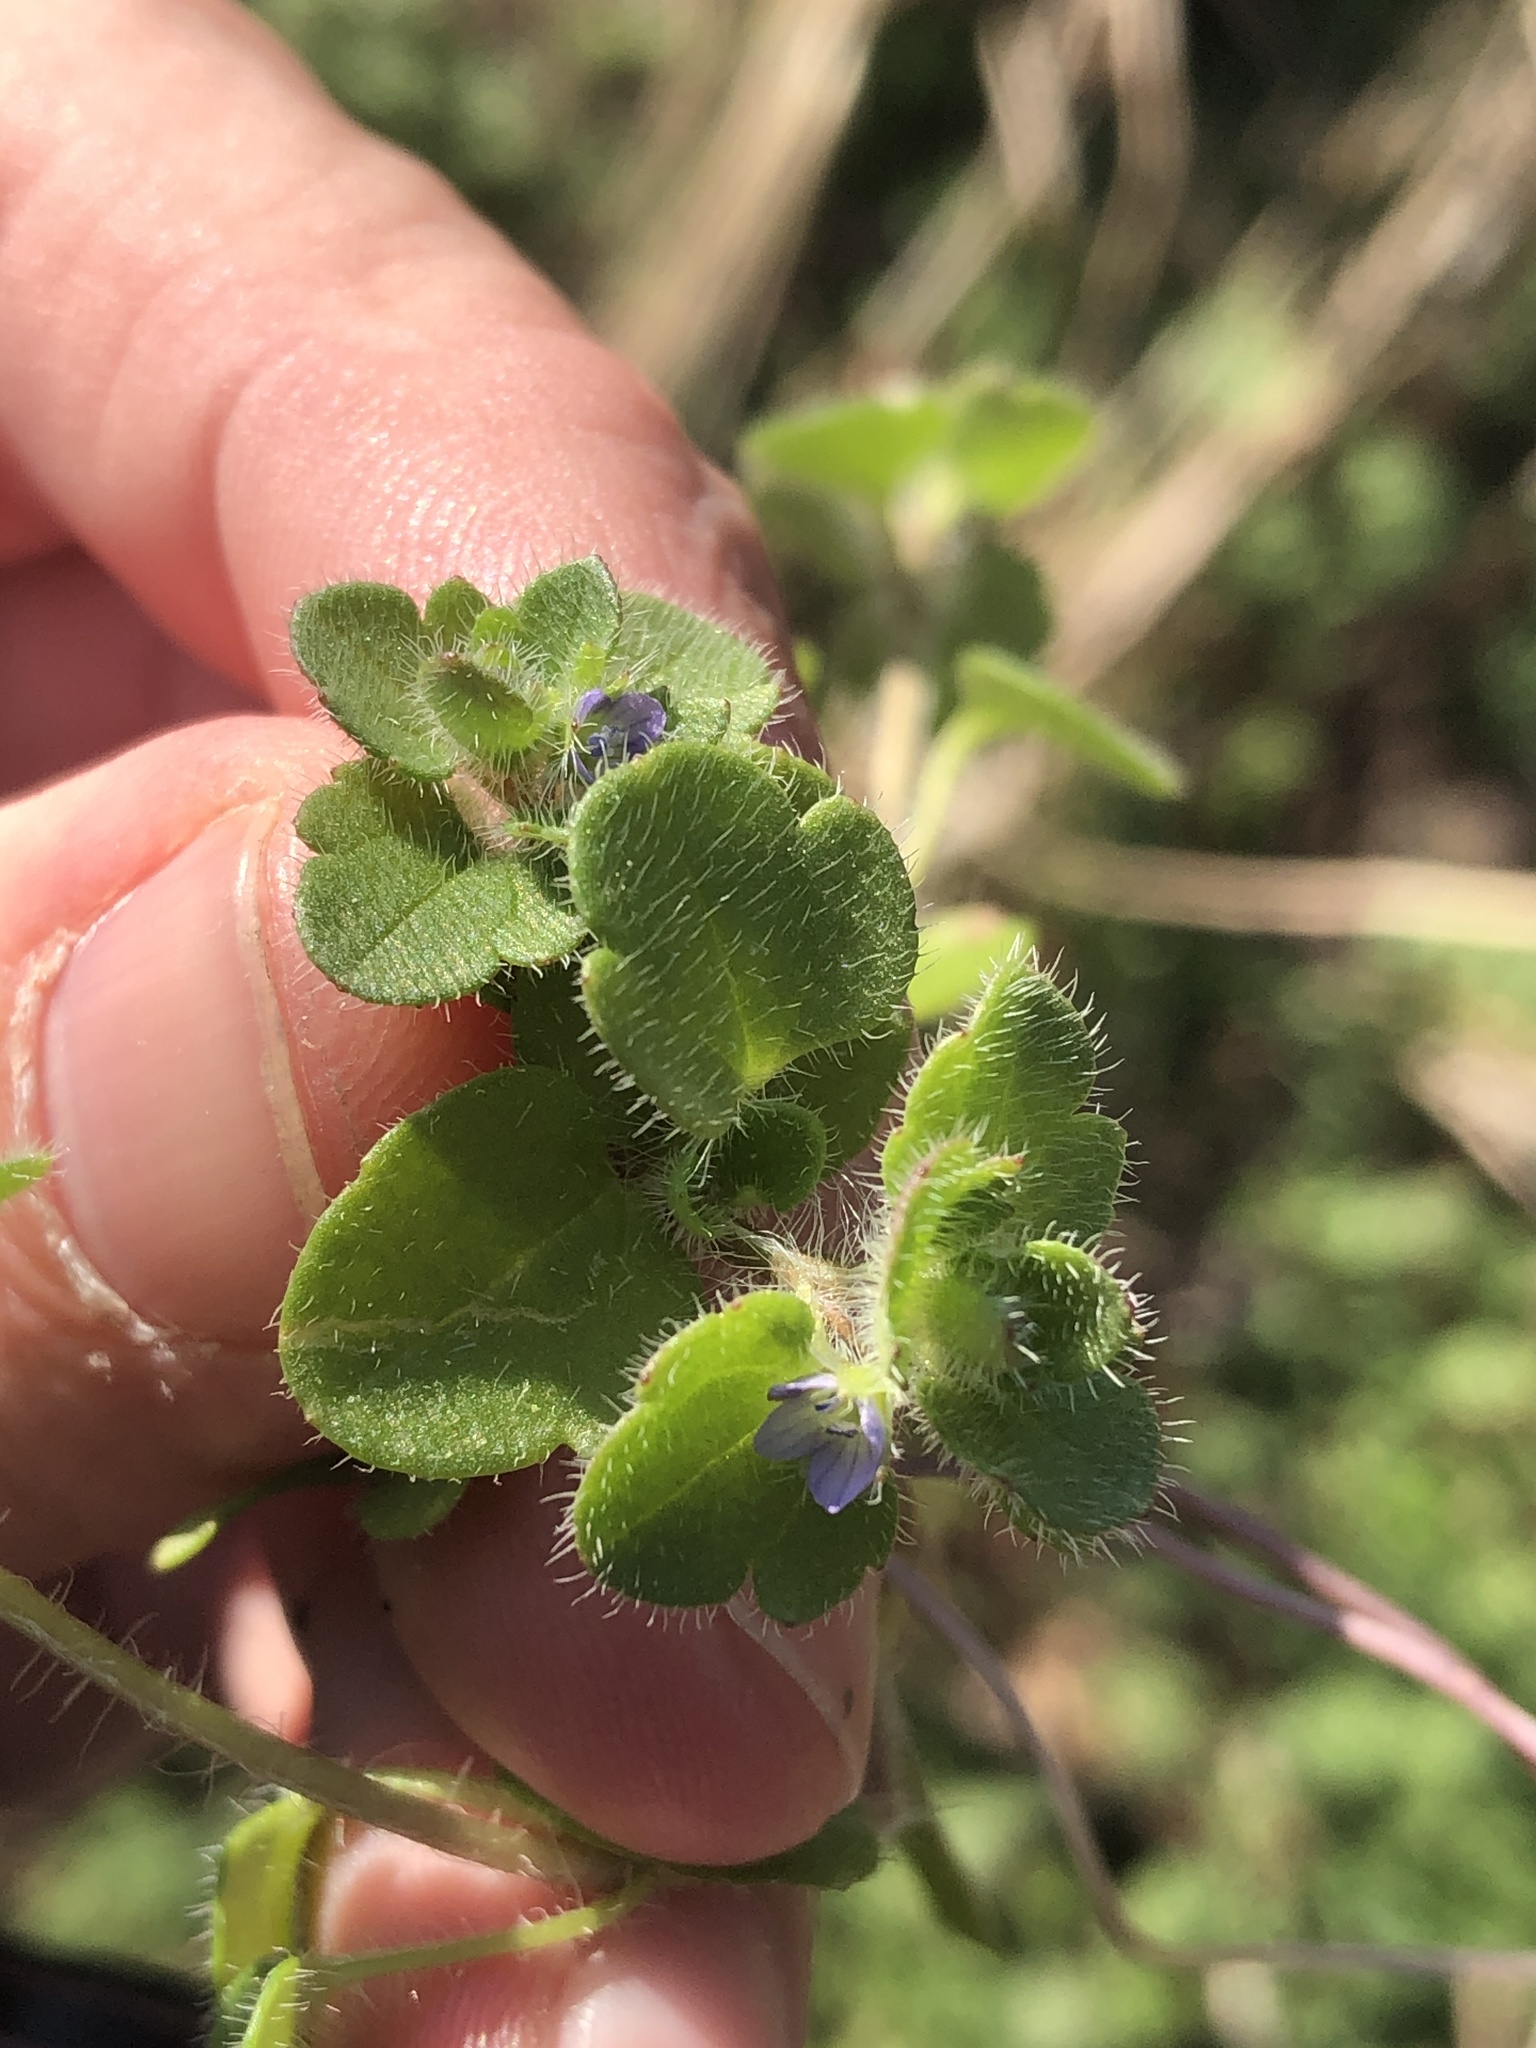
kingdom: Plantae
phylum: Tracheophyta
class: Magnoliopsida
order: Lamiales
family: Plantaginaceae
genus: Veronica
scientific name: Veronica hederifolia
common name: Ivy-leaved speedwell
